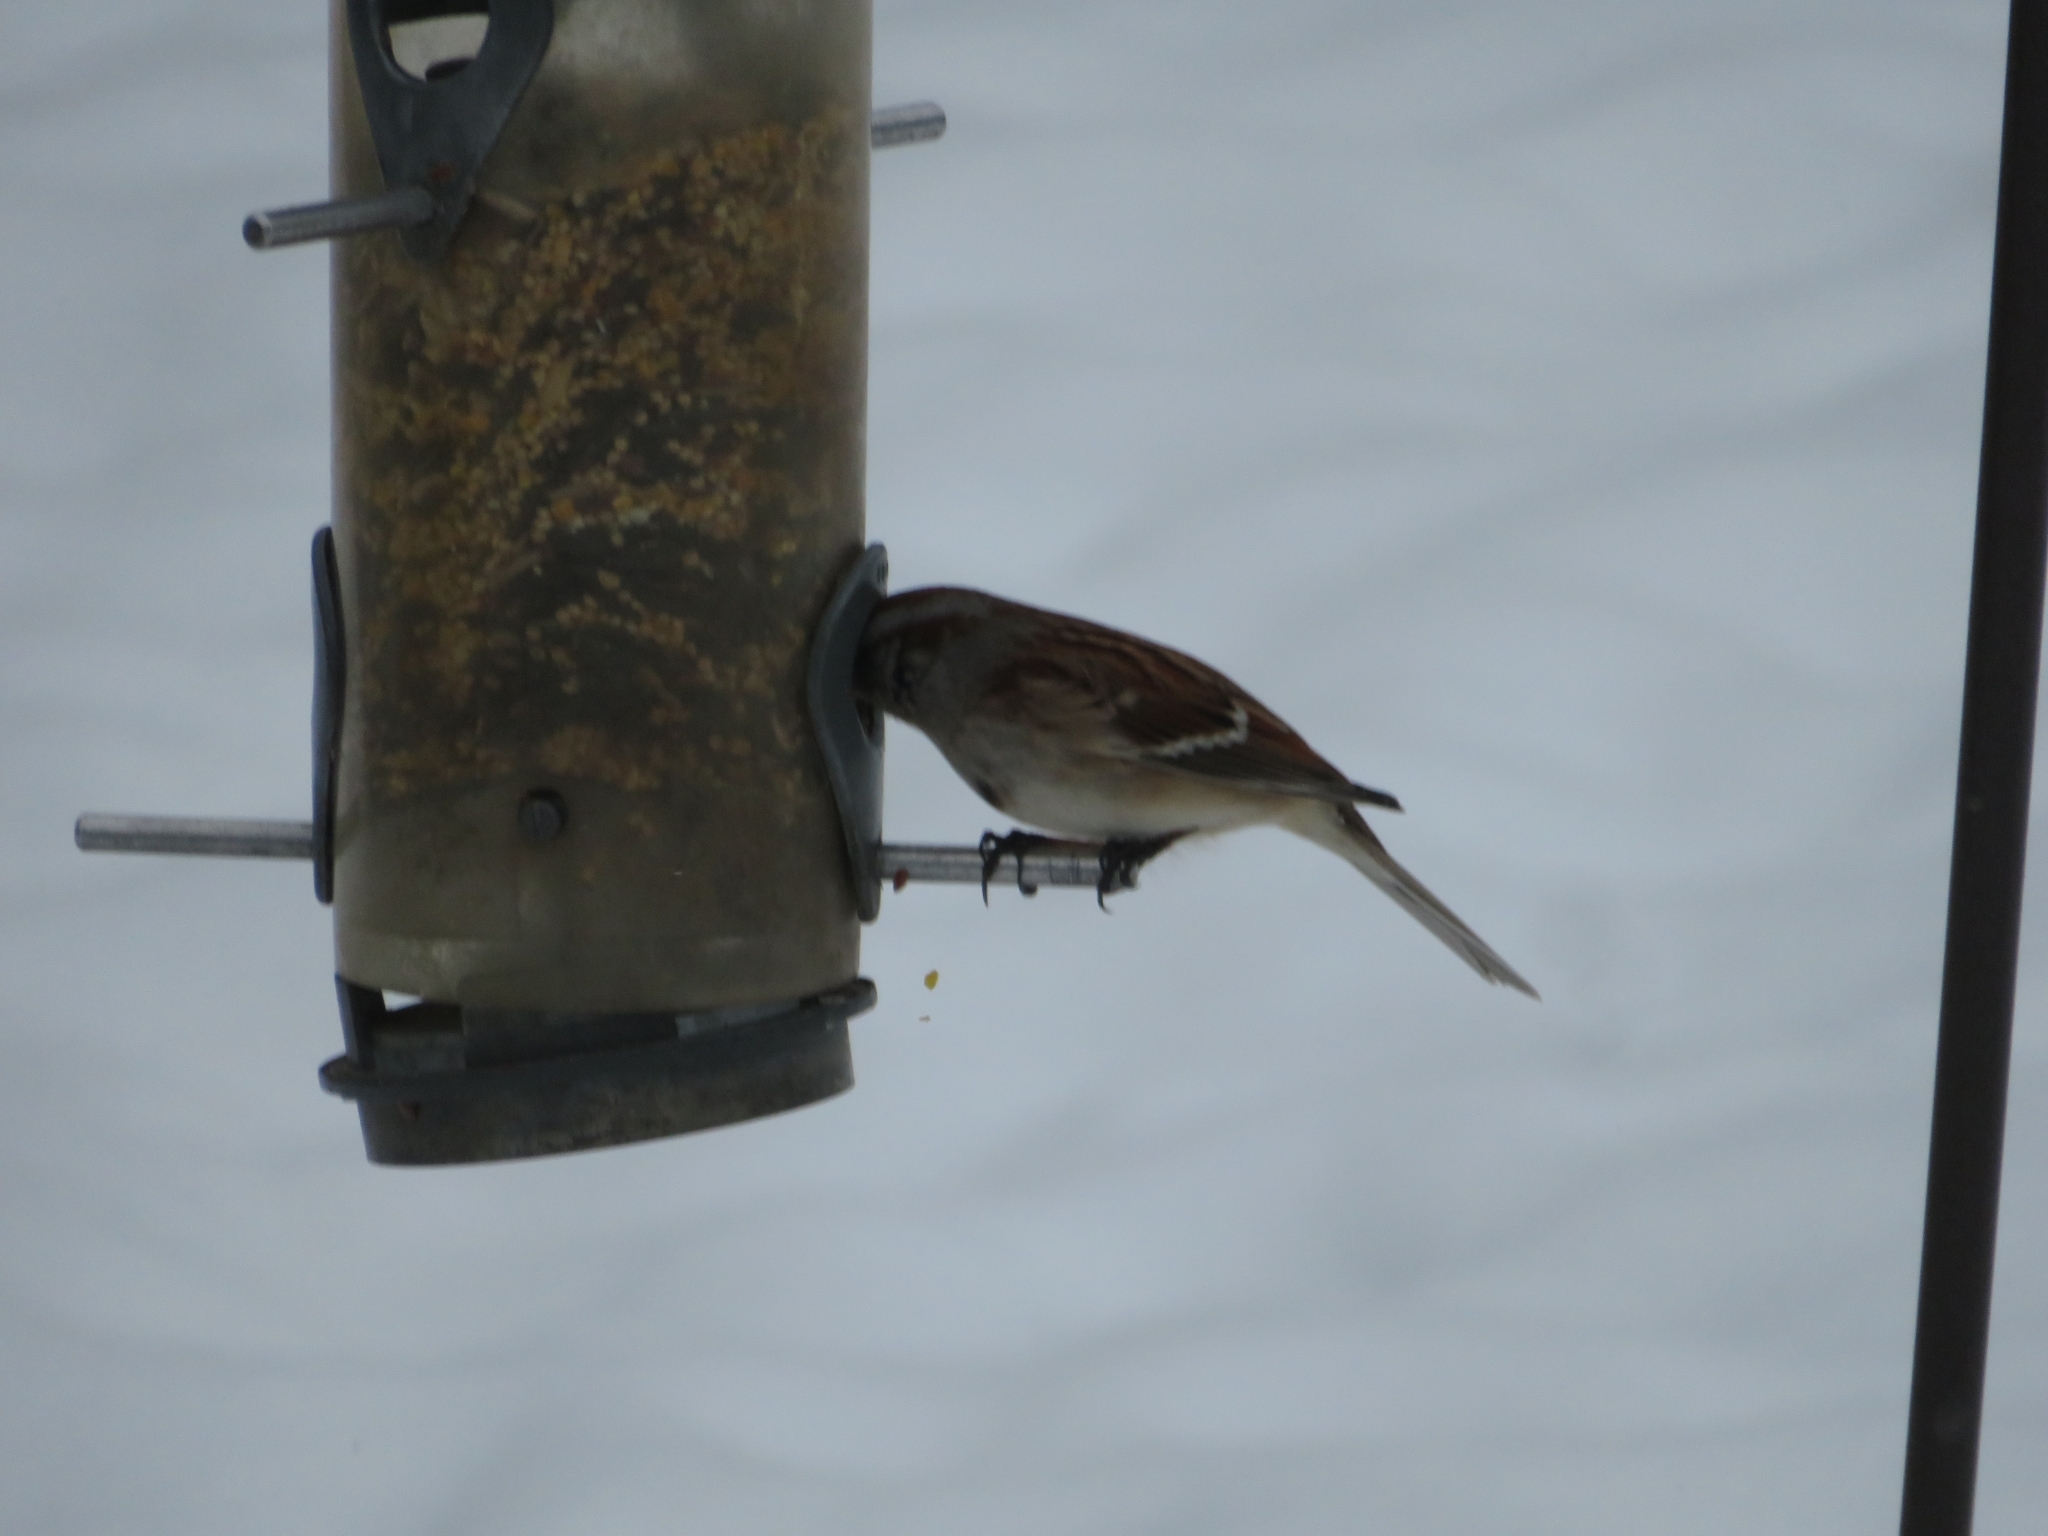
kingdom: Animalia
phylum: Chordata
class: Aves
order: Passeriformes
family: Passerellidae
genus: Spizelloides
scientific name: Spizelloides arborea
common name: American tree sparrow
